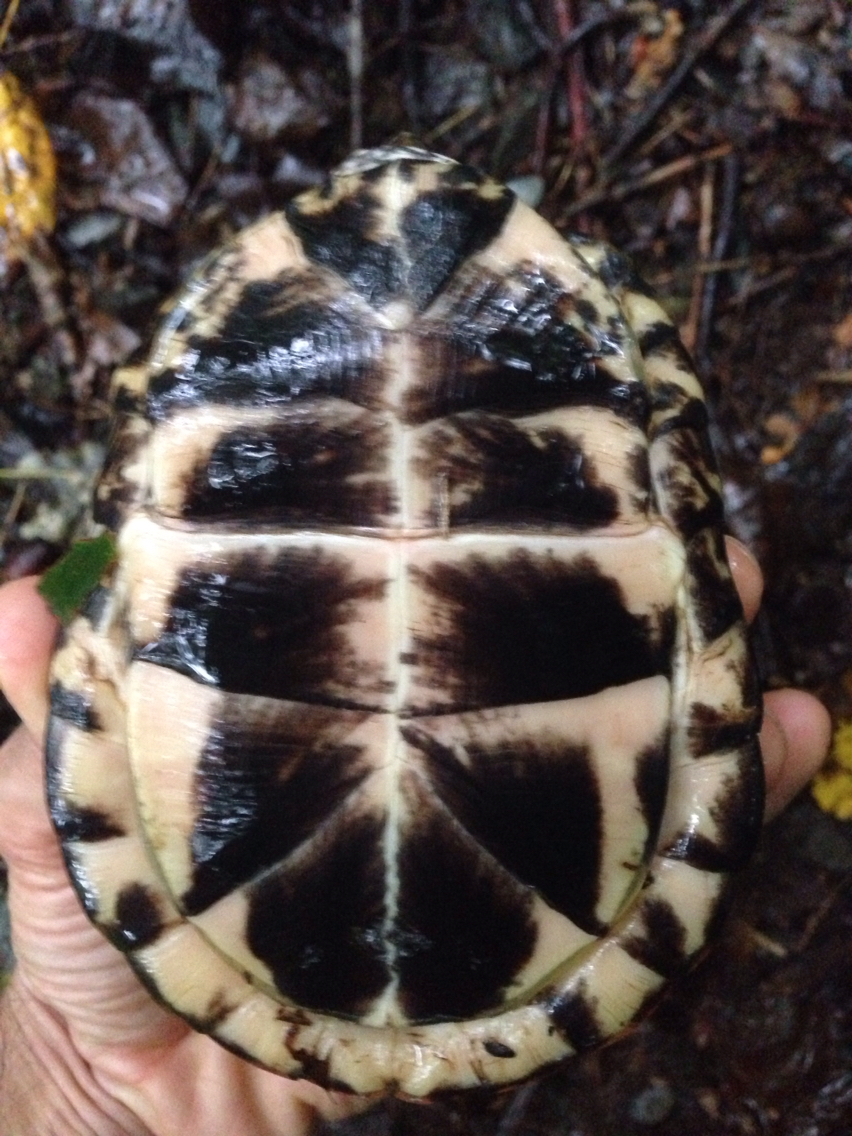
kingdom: Animalia
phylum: Chordata
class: Testudines
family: Emydidae
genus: Terrapene
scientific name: Terrapene carolina
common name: Common box turtle
